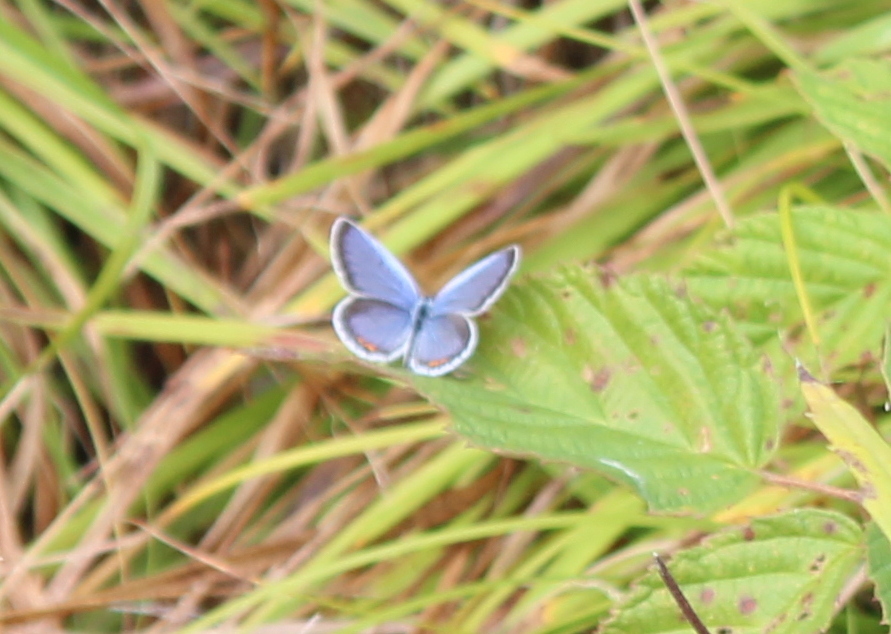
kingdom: Animalia
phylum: Arthropoda
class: Insecta
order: Lepidoptera
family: Lycaenidae
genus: Elkalyce
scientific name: Elkalyce comyntas
